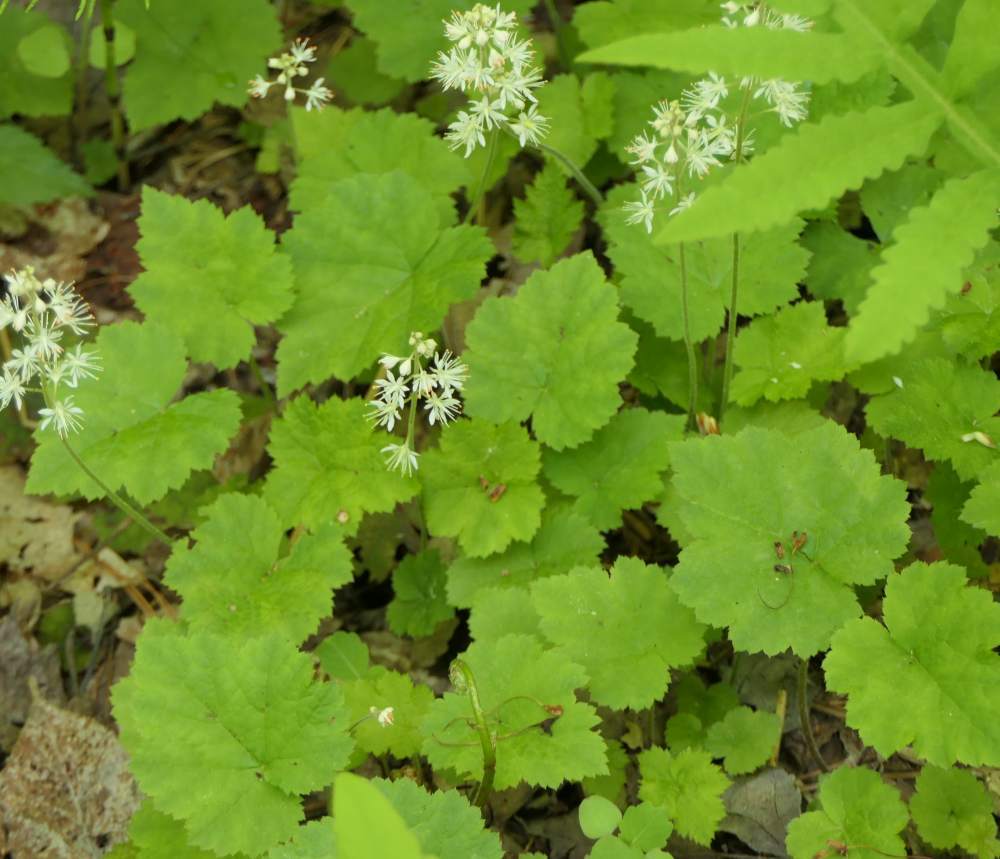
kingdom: Plantae
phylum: Tracheophyta
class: Magnoliopsida
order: Saxifragales
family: Saxifragaceae
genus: Tiarella
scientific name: Tiarella stolonifera
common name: Stoloniferous foamflower
